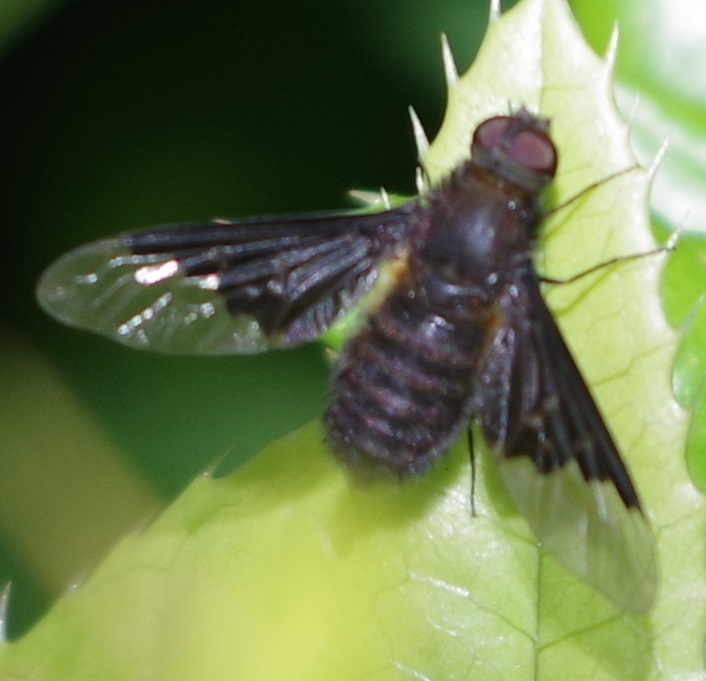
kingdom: Animalia
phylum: Arthropoda
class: Insecta
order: Diptera
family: Bombyliidae
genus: Hemipenthes
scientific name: Hemipenthes morio
